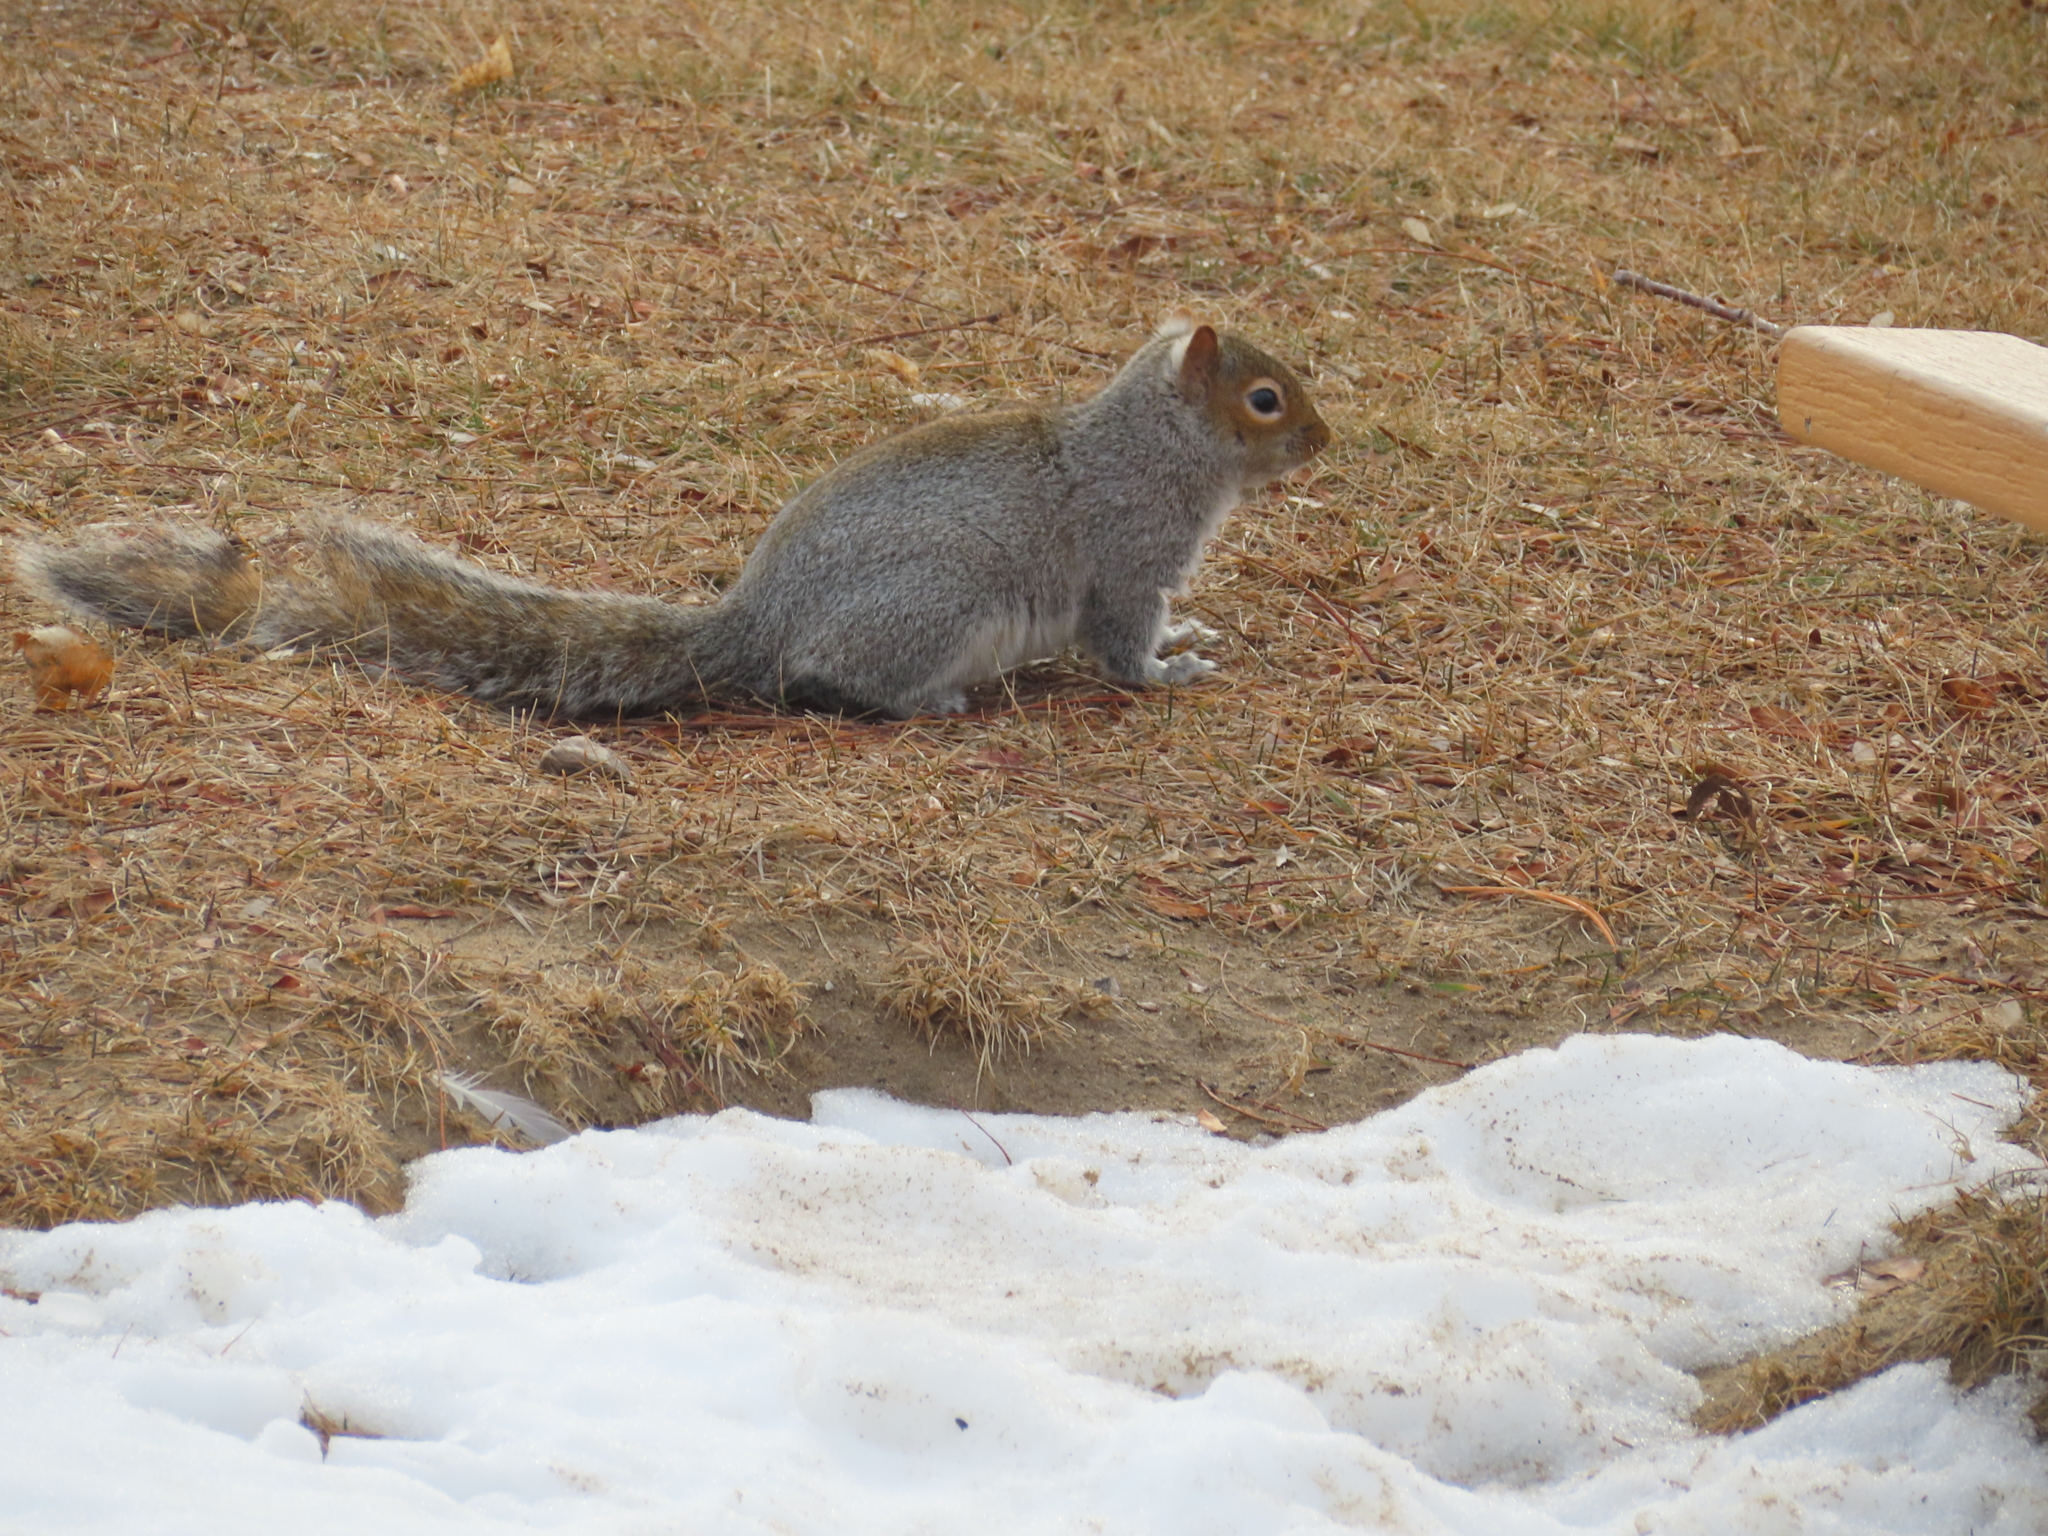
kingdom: Animalia
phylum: Chordata
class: Mammalia
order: Rodentia
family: Sciuridae
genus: Sciurus
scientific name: Sciurus carolinensis
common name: Eastern gray squirrel
